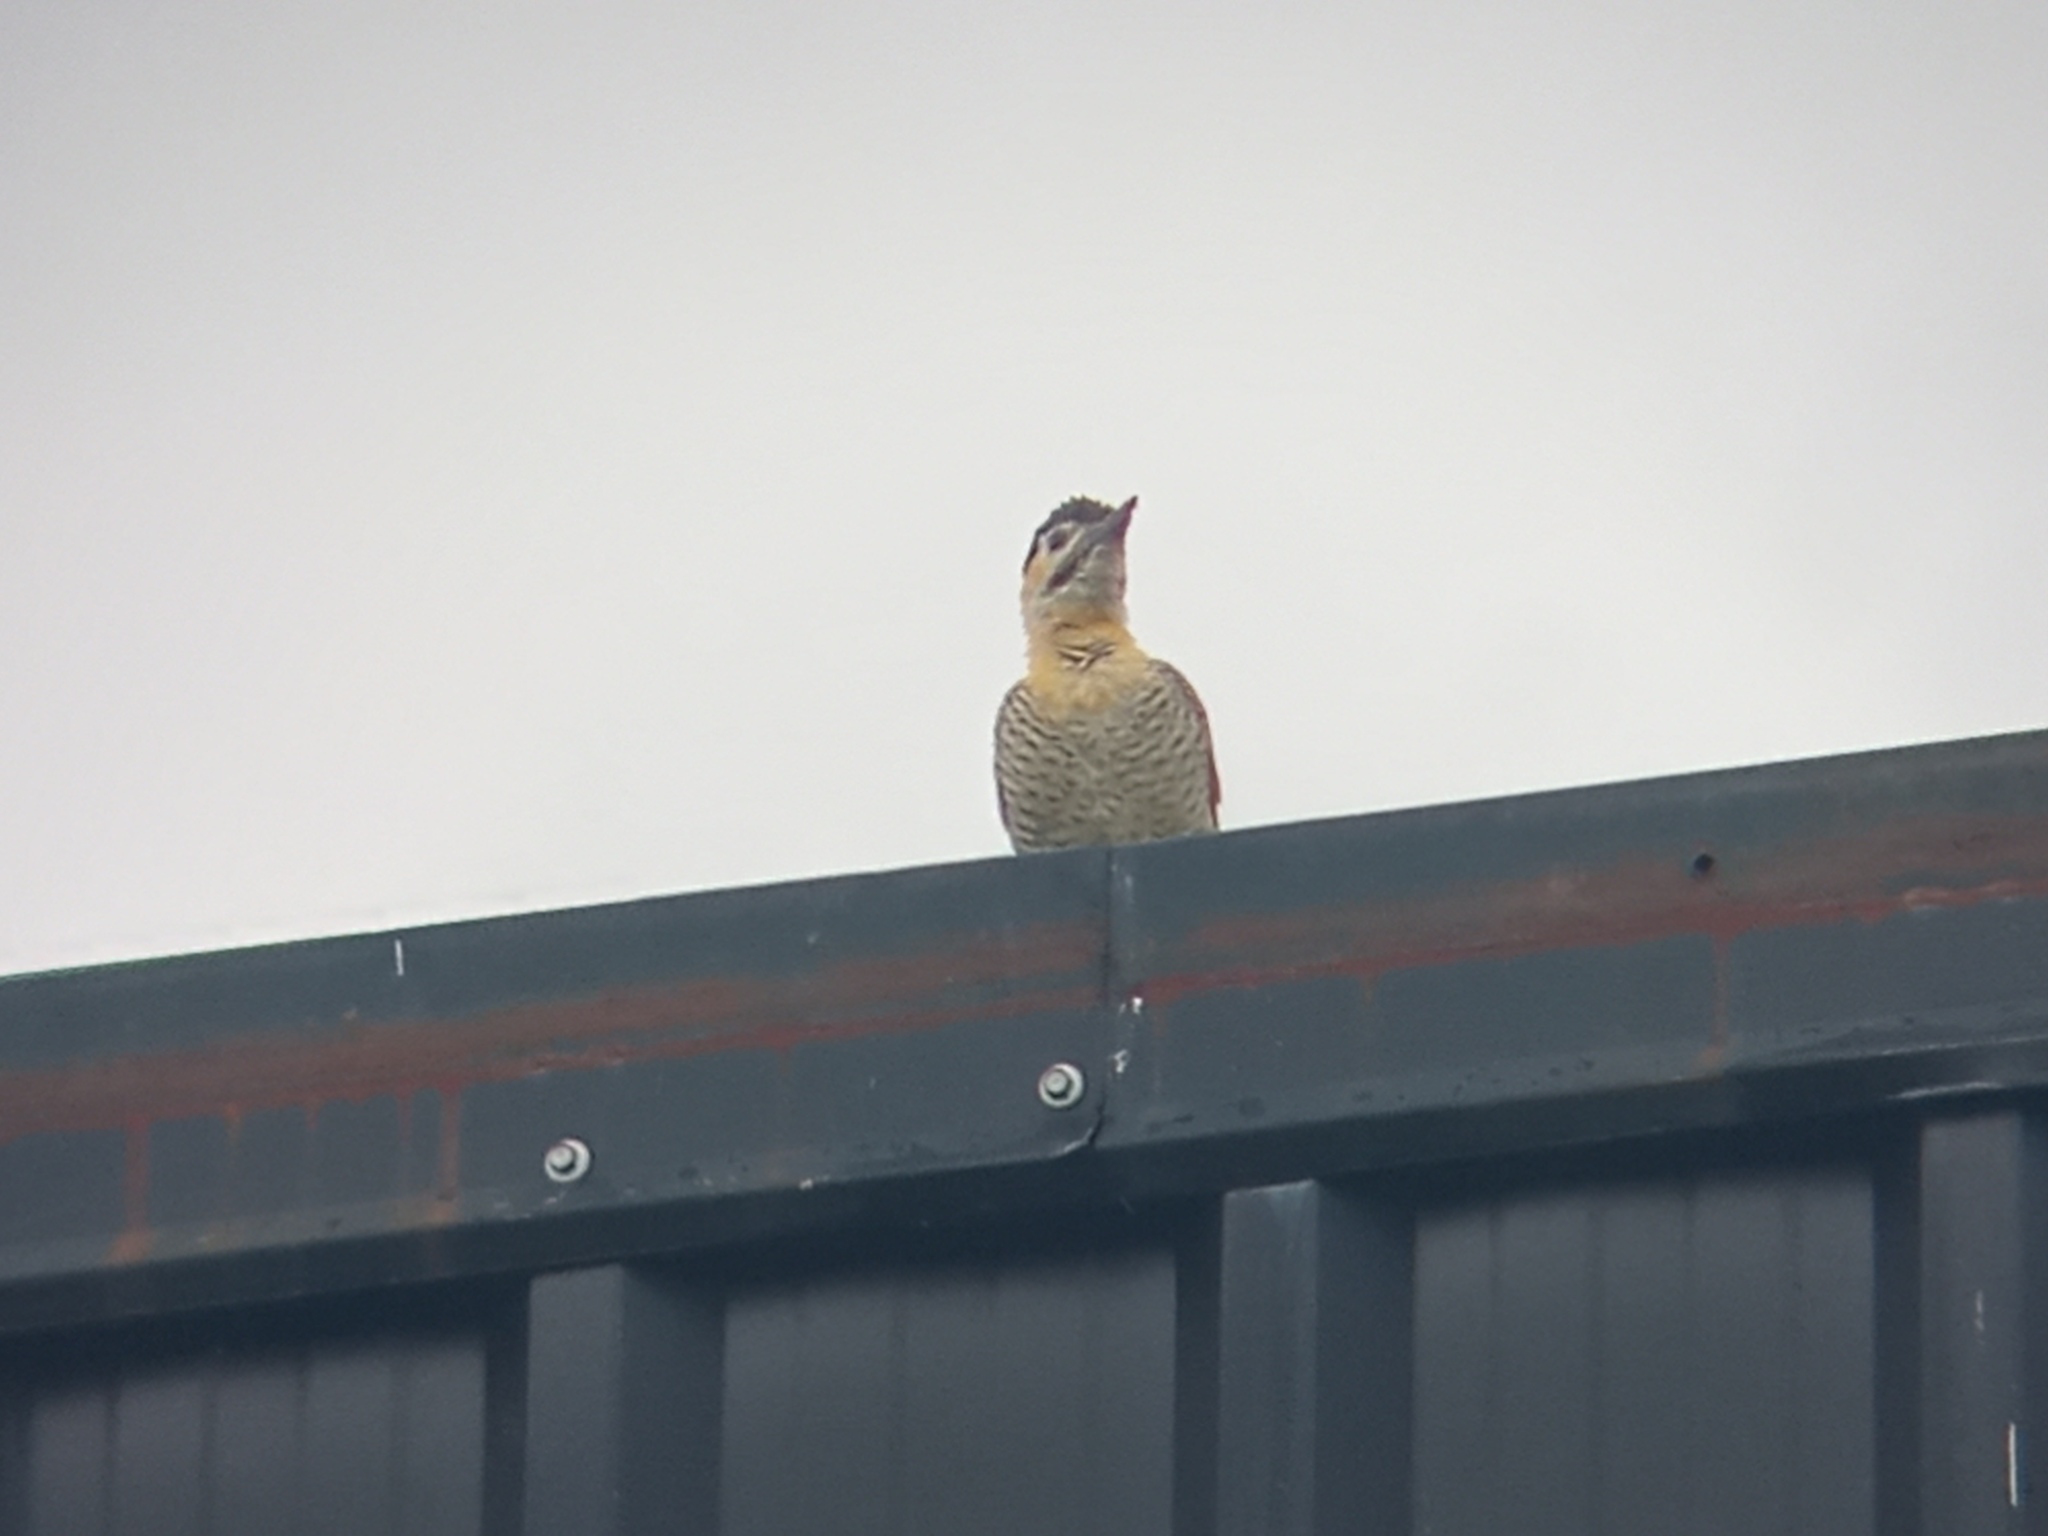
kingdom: Animalia
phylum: Chordata
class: Aves
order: Piciformes
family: Picidae
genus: Colaptes
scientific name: Colaptes campestris
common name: Campo flicker
